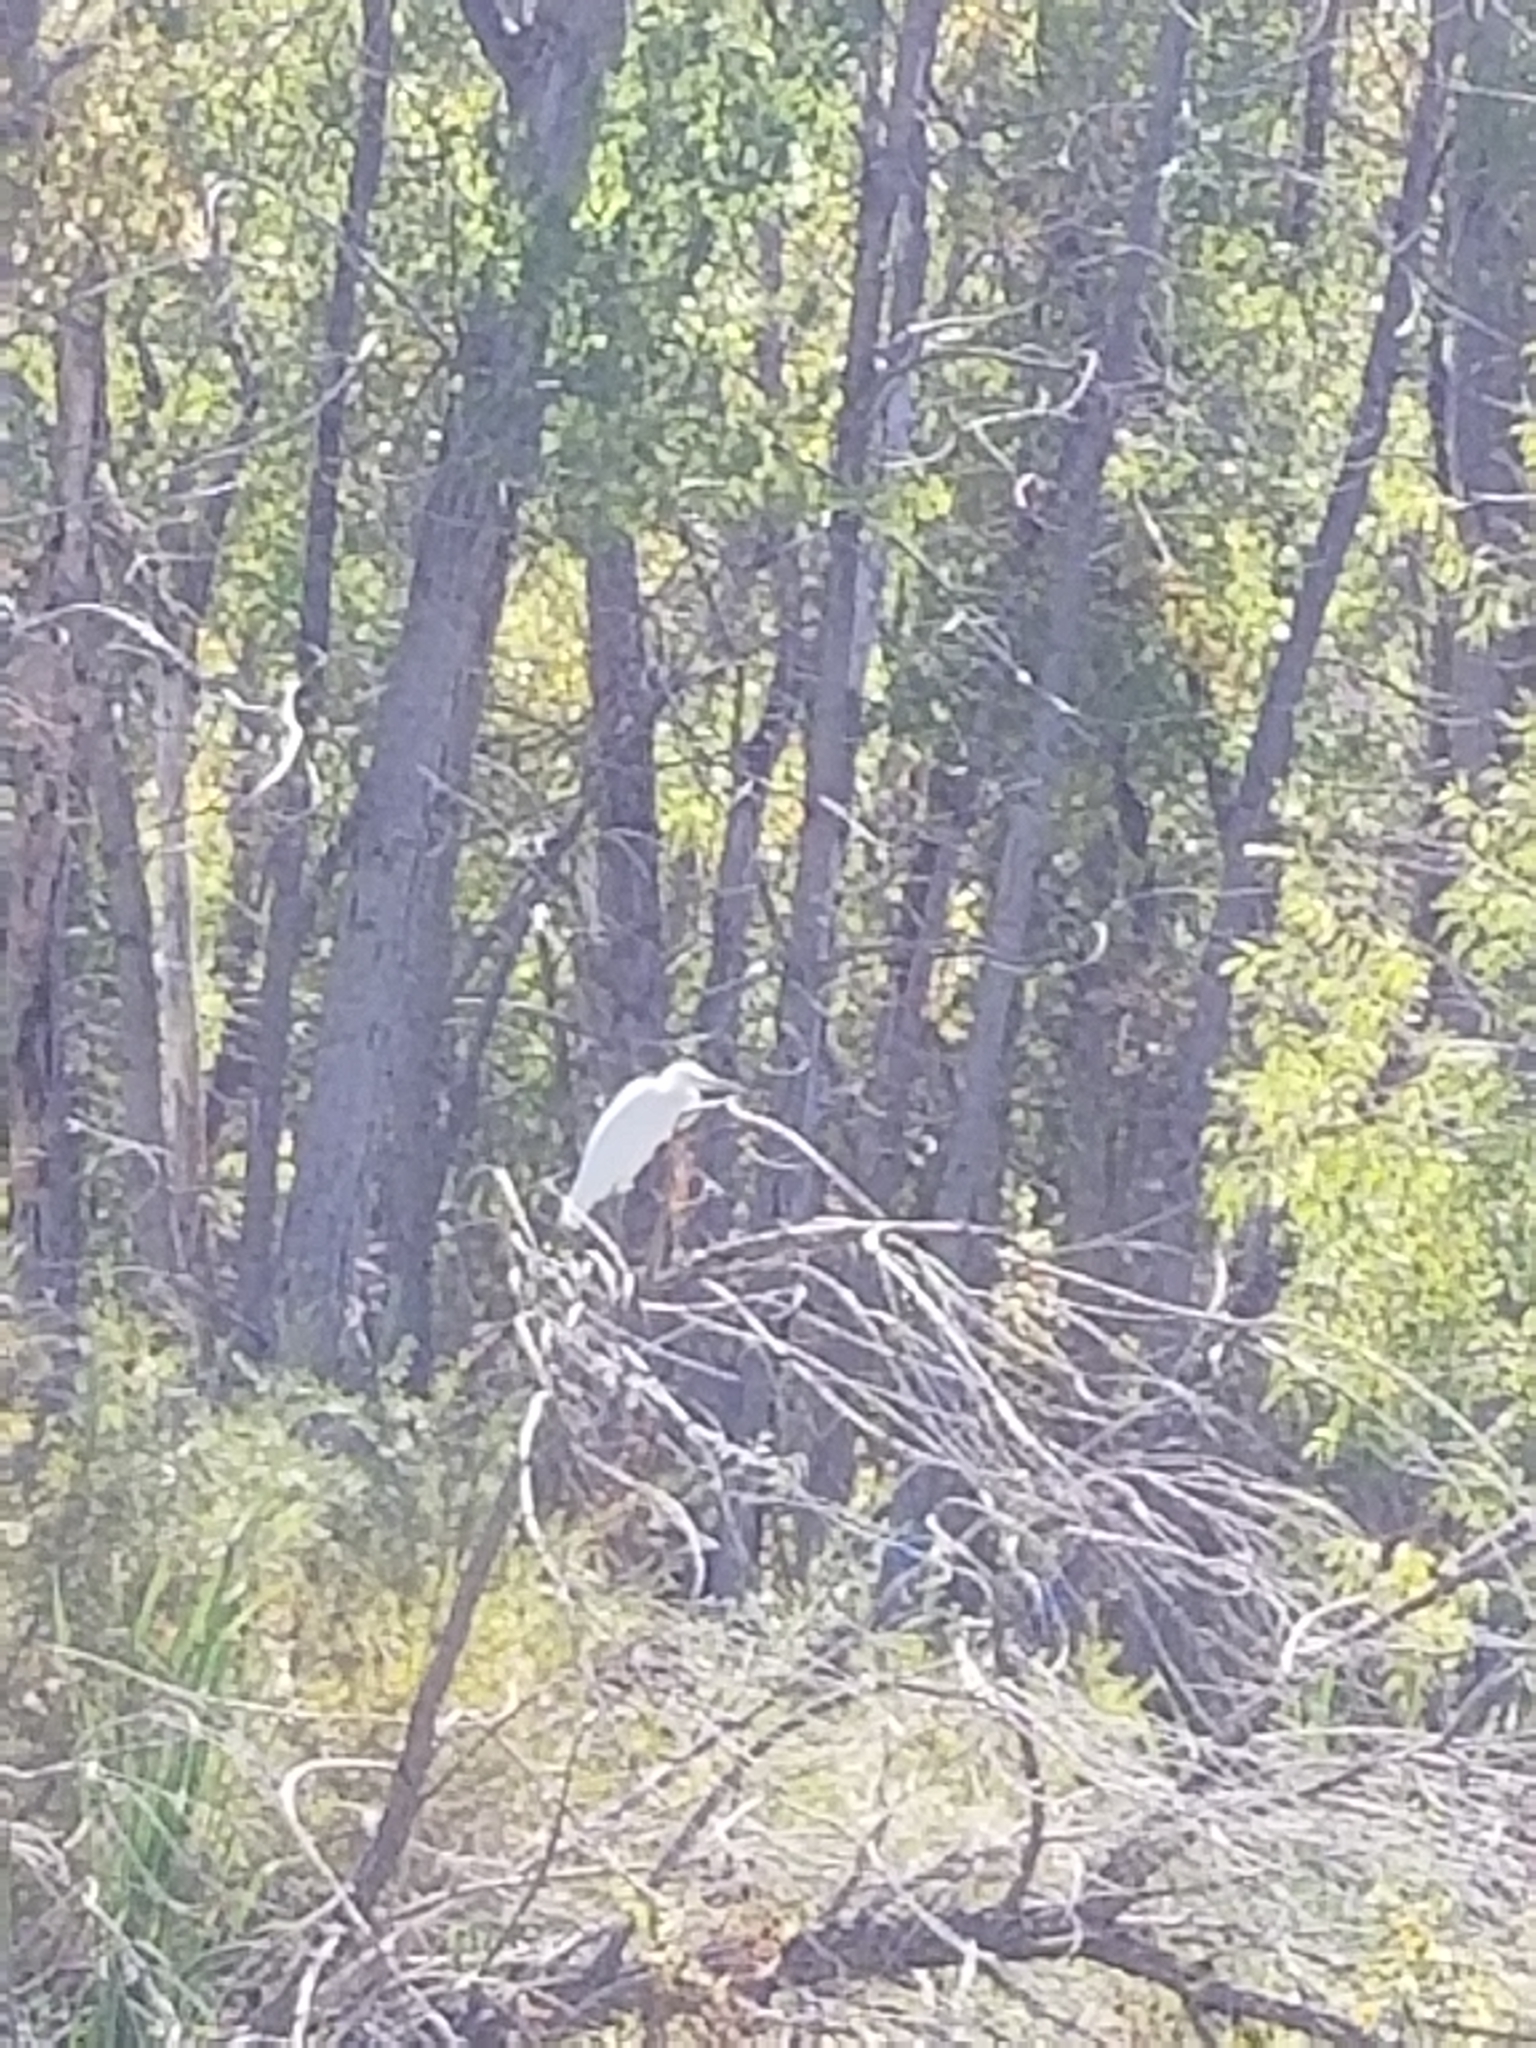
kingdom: Animalia
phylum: Chordata
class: Aves
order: Pelecaniformes
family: Ardeidae
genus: Egretta
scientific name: Egretta thula
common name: Snowy egret
